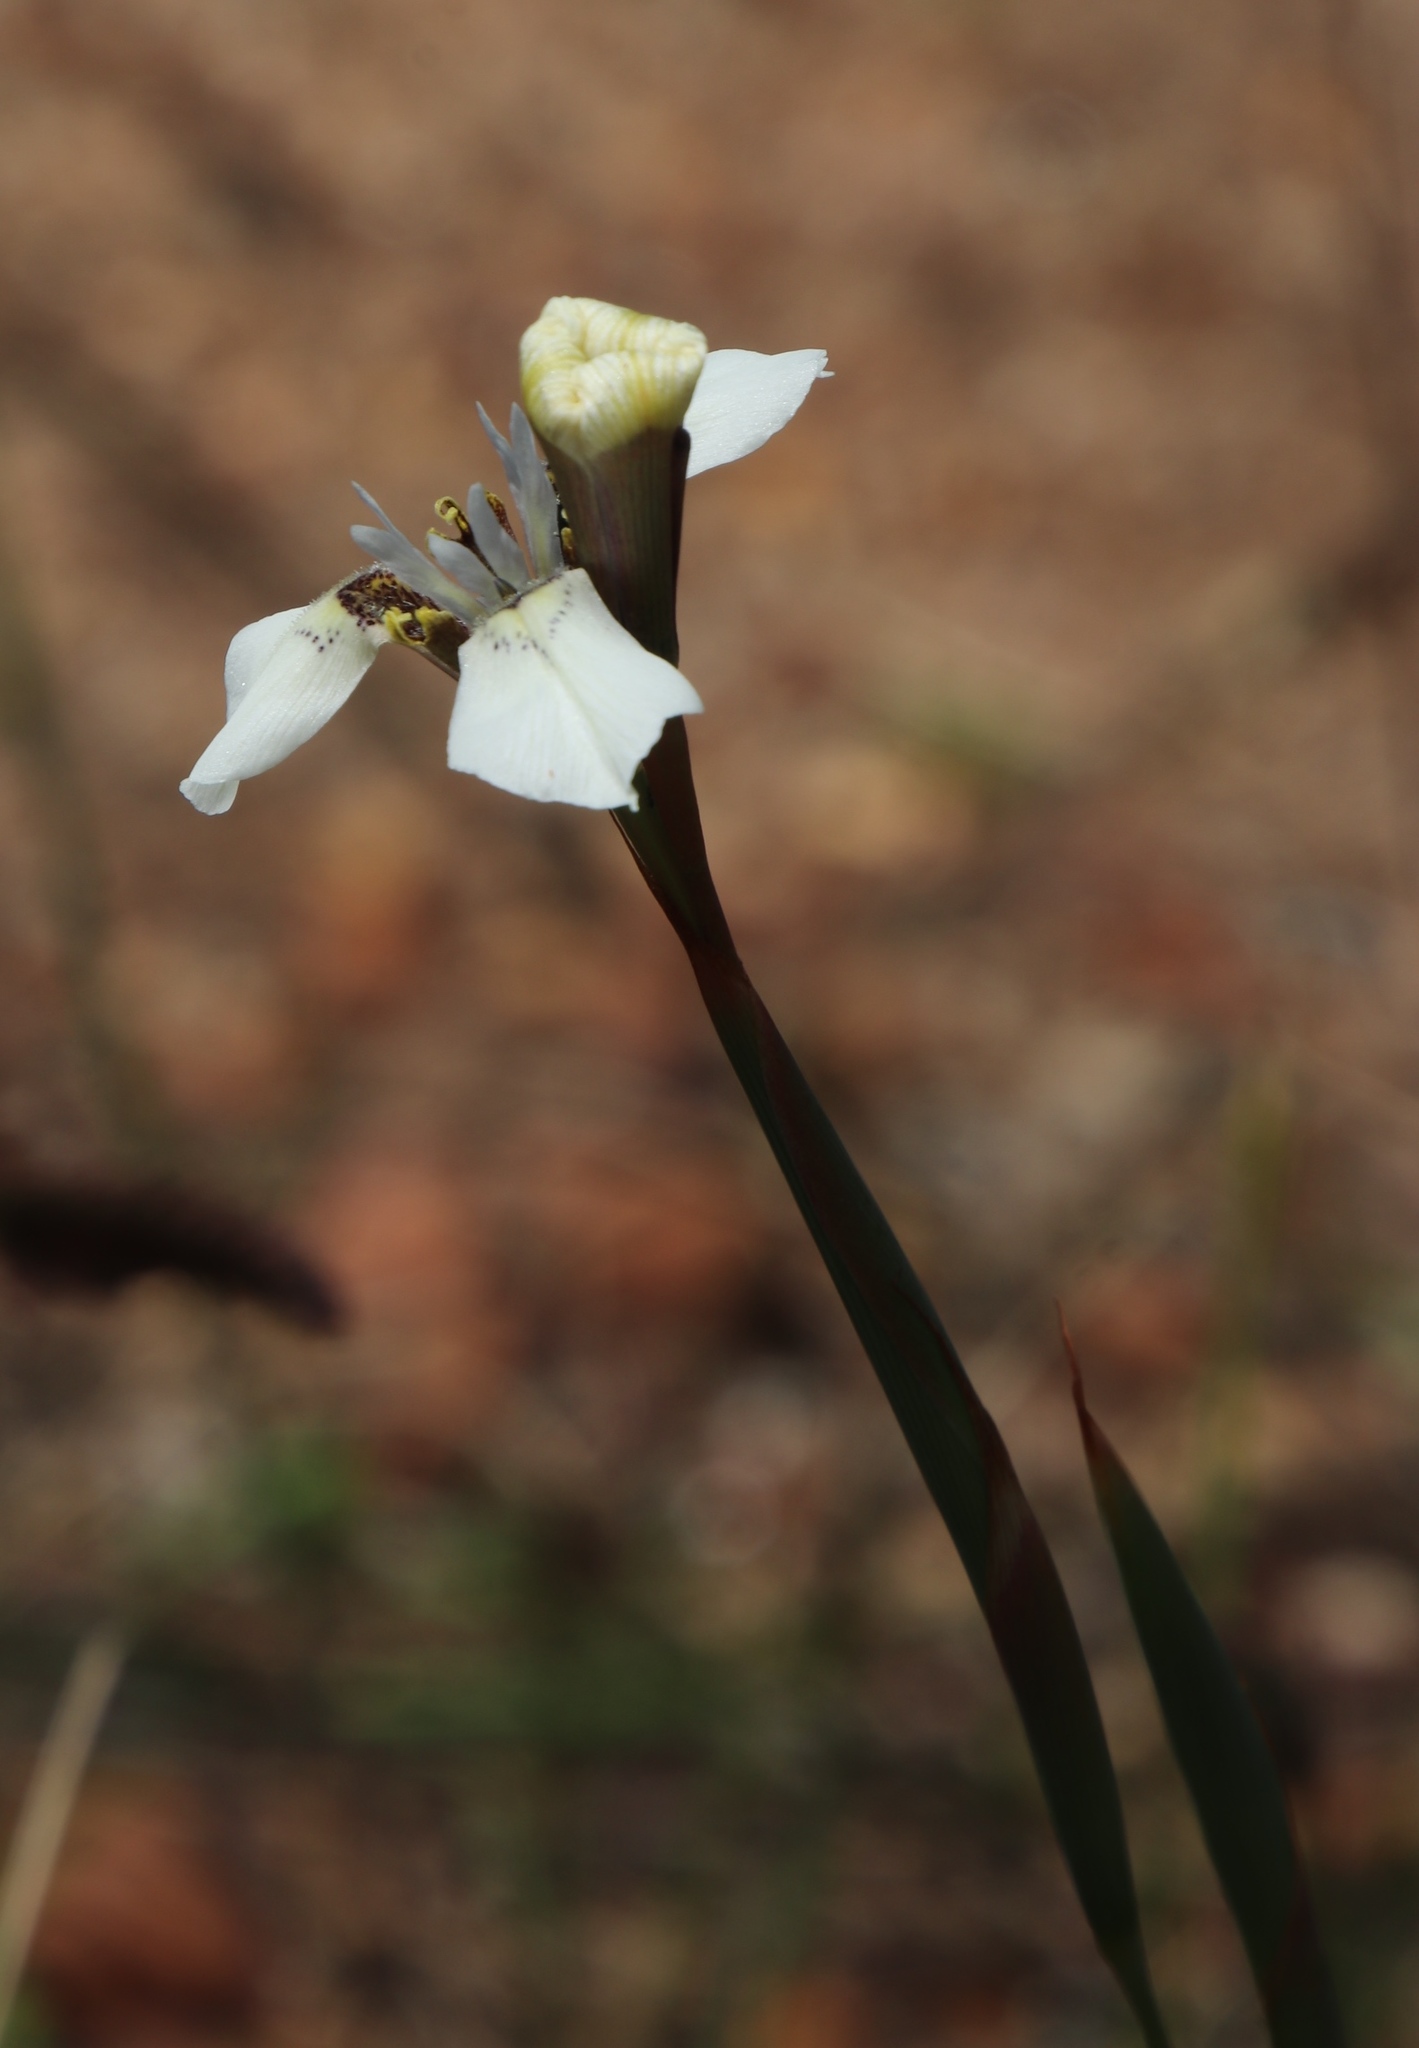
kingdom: Plantae
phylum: Tracheophyta
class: Liliopsida
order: Asparagales
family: Iridaceae
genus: Moraea
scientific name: Moraea tricuspidata
